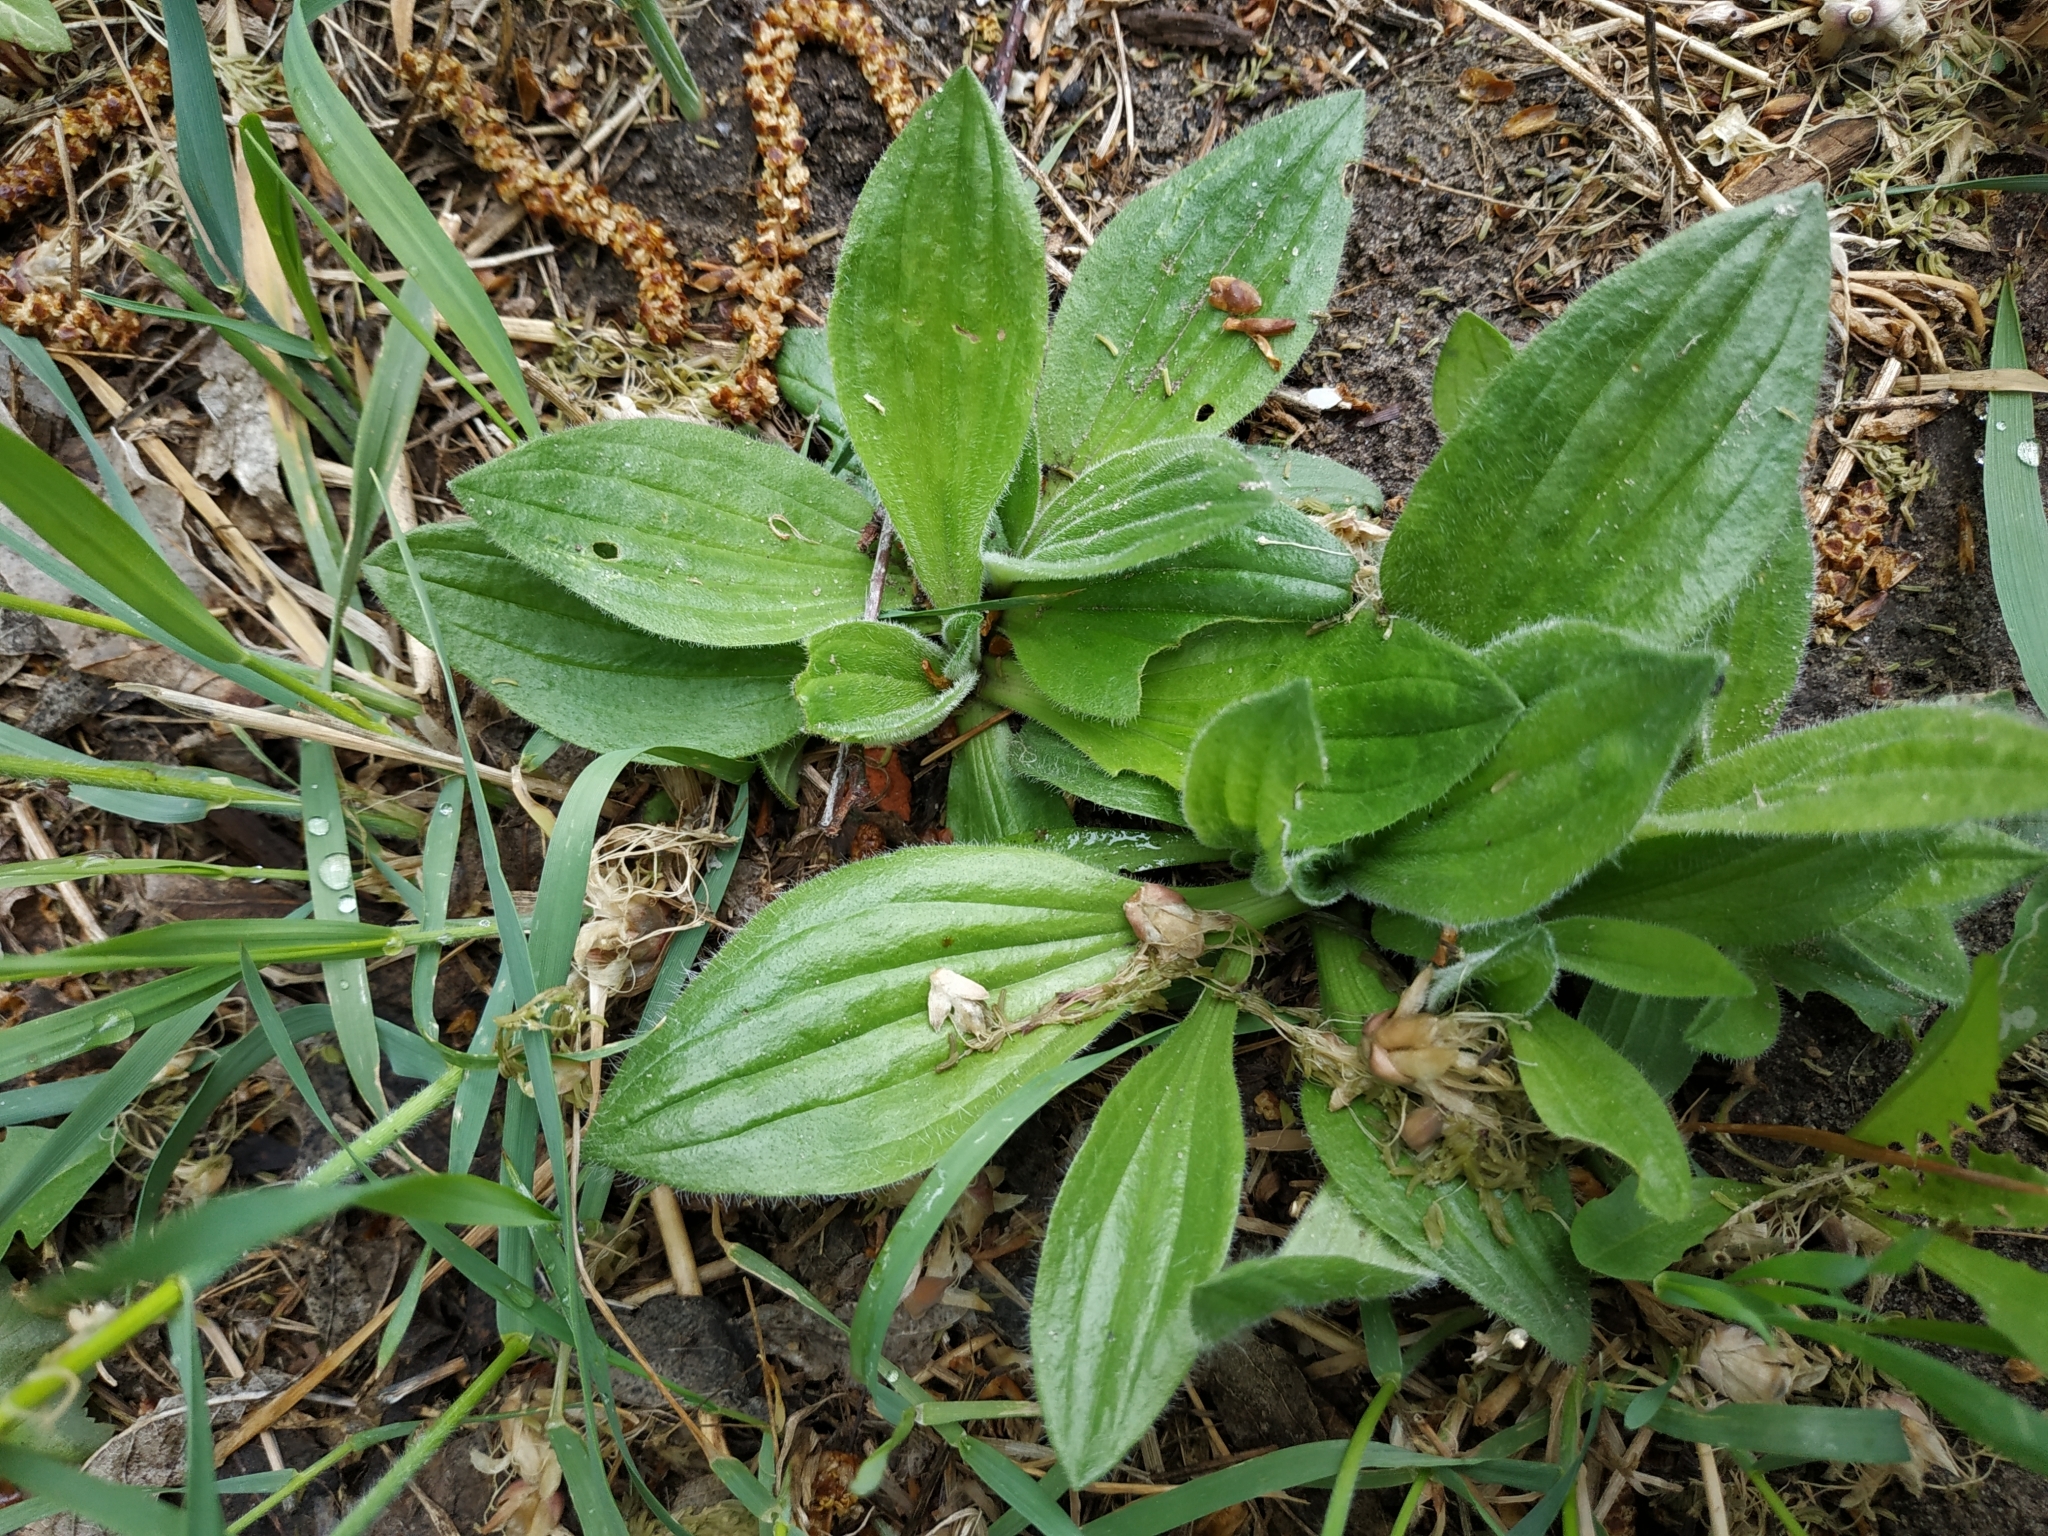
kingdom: Plantae
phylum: Tracheophyta
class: Magnoliopsida
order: Lamiales
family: Plantaginaceae
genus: Plantago
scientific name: Plantago media
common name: Hoary plantain
